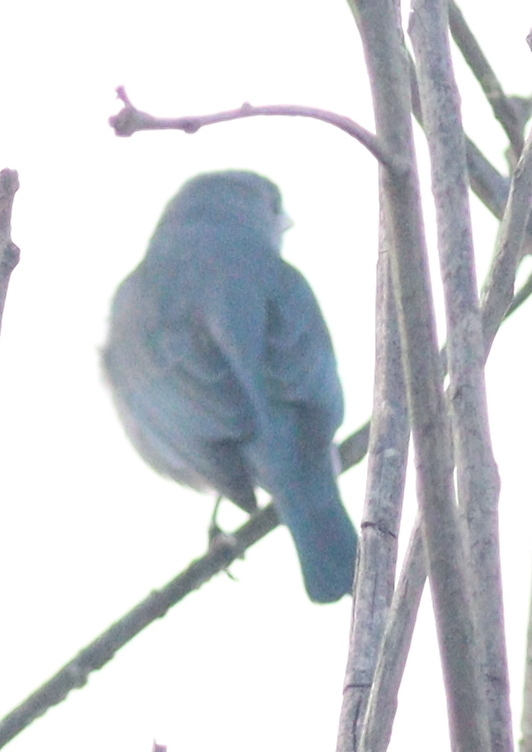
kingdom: Animalia
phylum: Chordata
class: Aves
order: Passeriformes
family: Thraupidae
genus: Thraupis
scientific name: Thraupis sayaca
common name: Sayaca tanager
